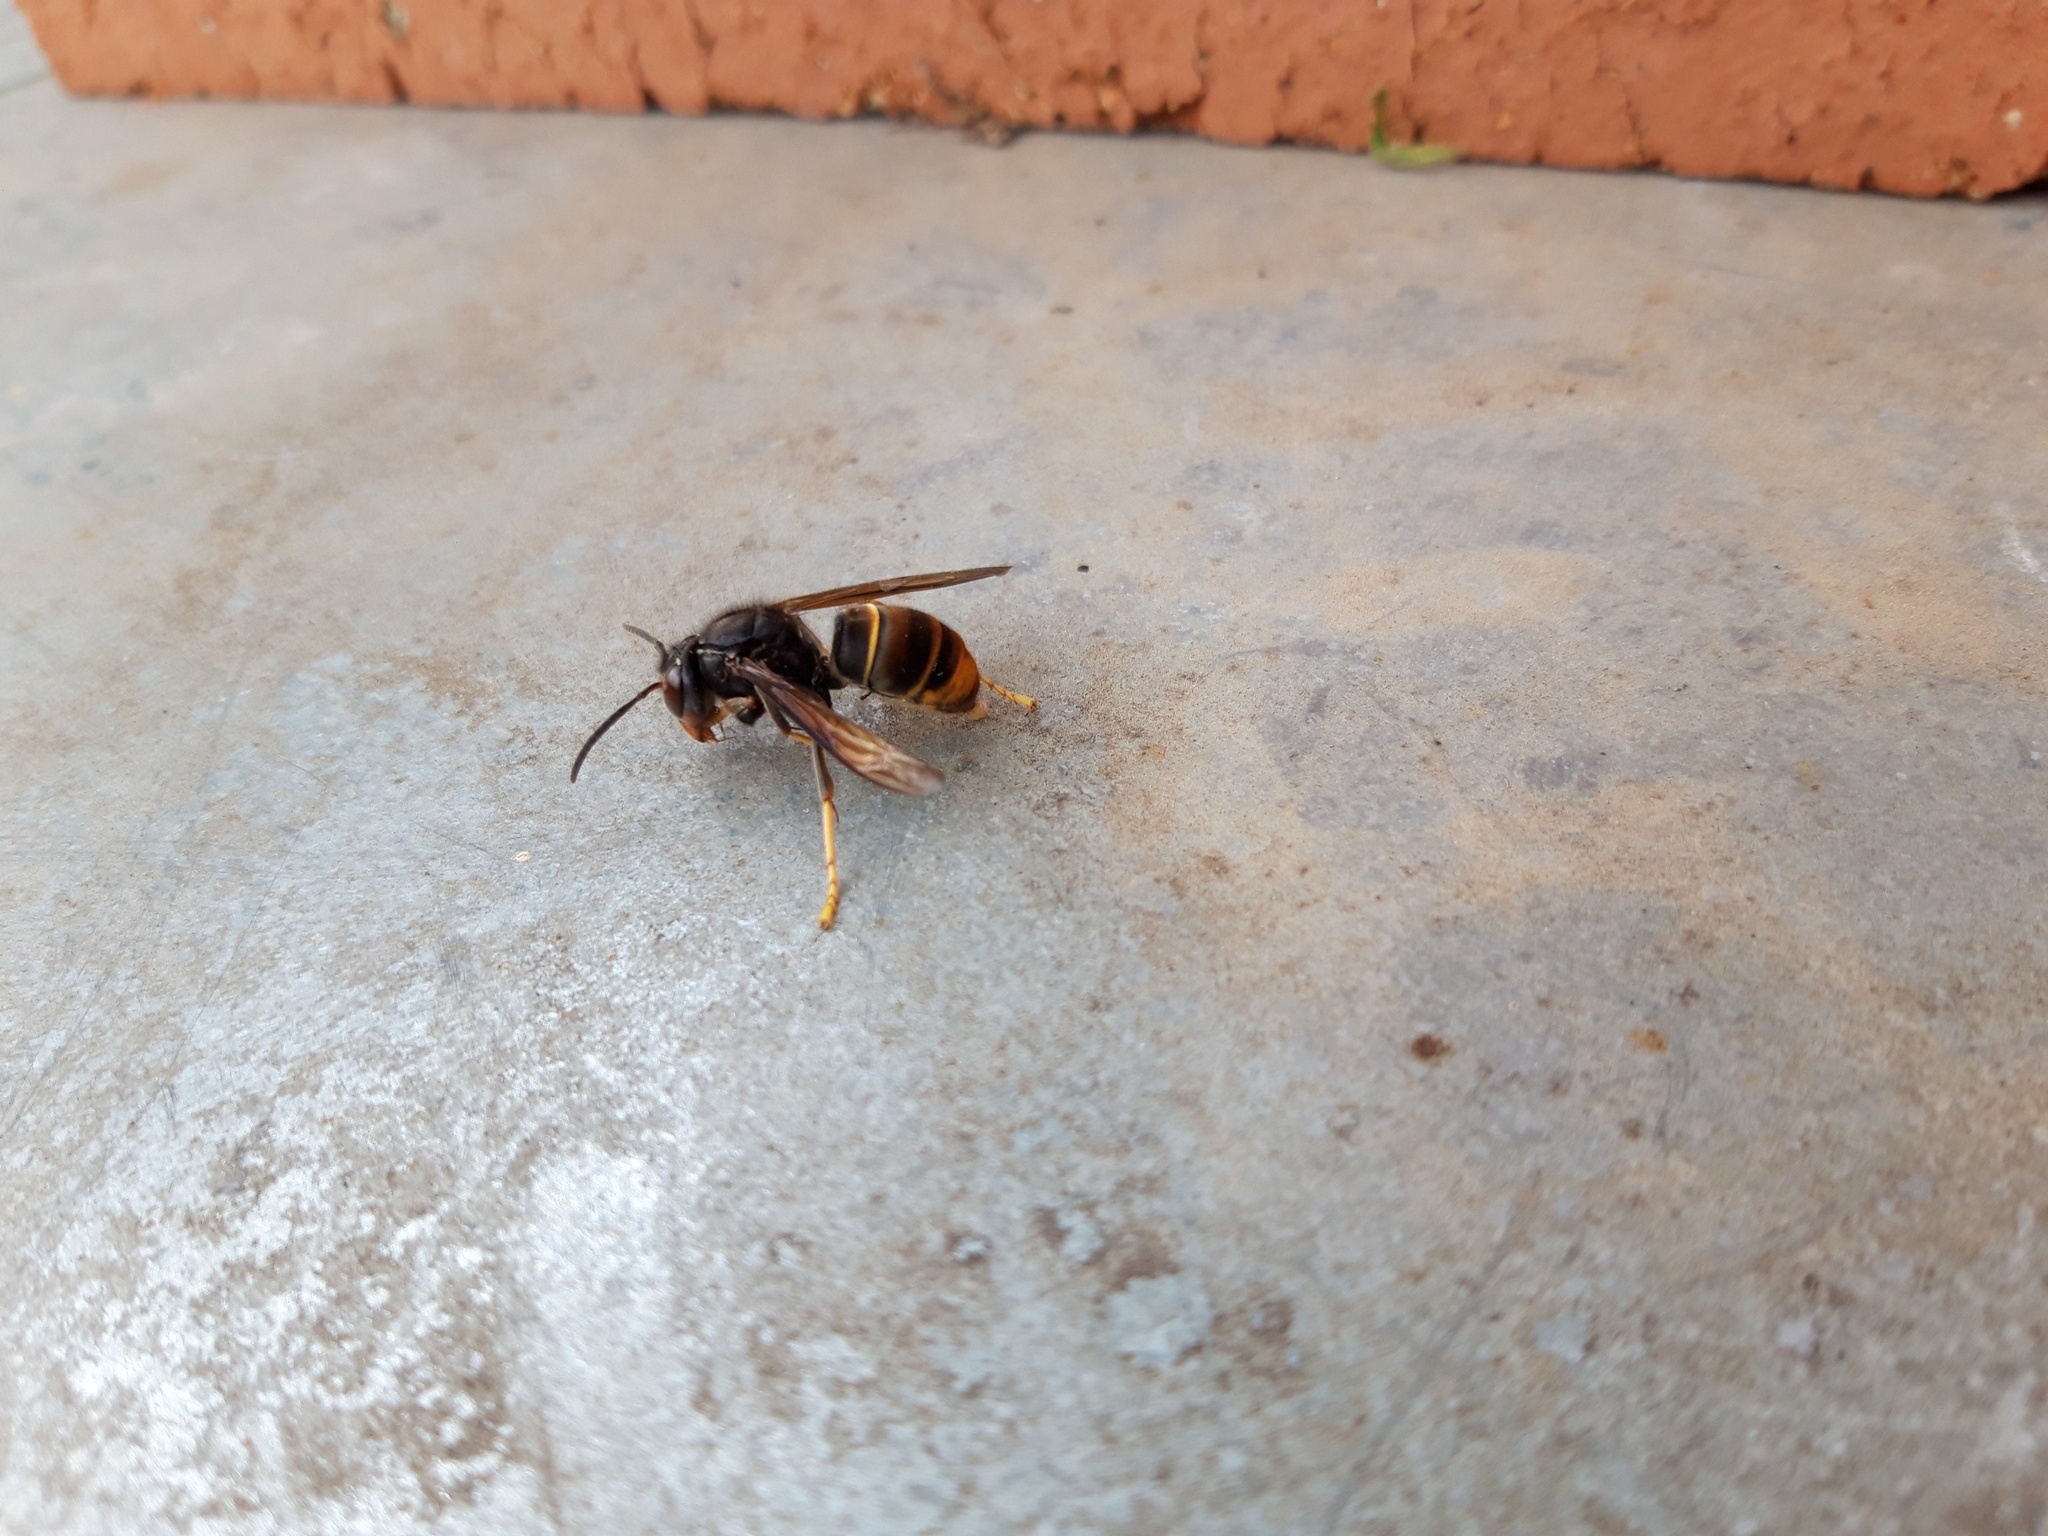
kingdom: Animalia
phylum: Arthropoda
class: Insecta
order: Hymenoptera
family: Vespidae
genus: Vespa
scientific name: Vespa velutina
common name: Asian hornet
